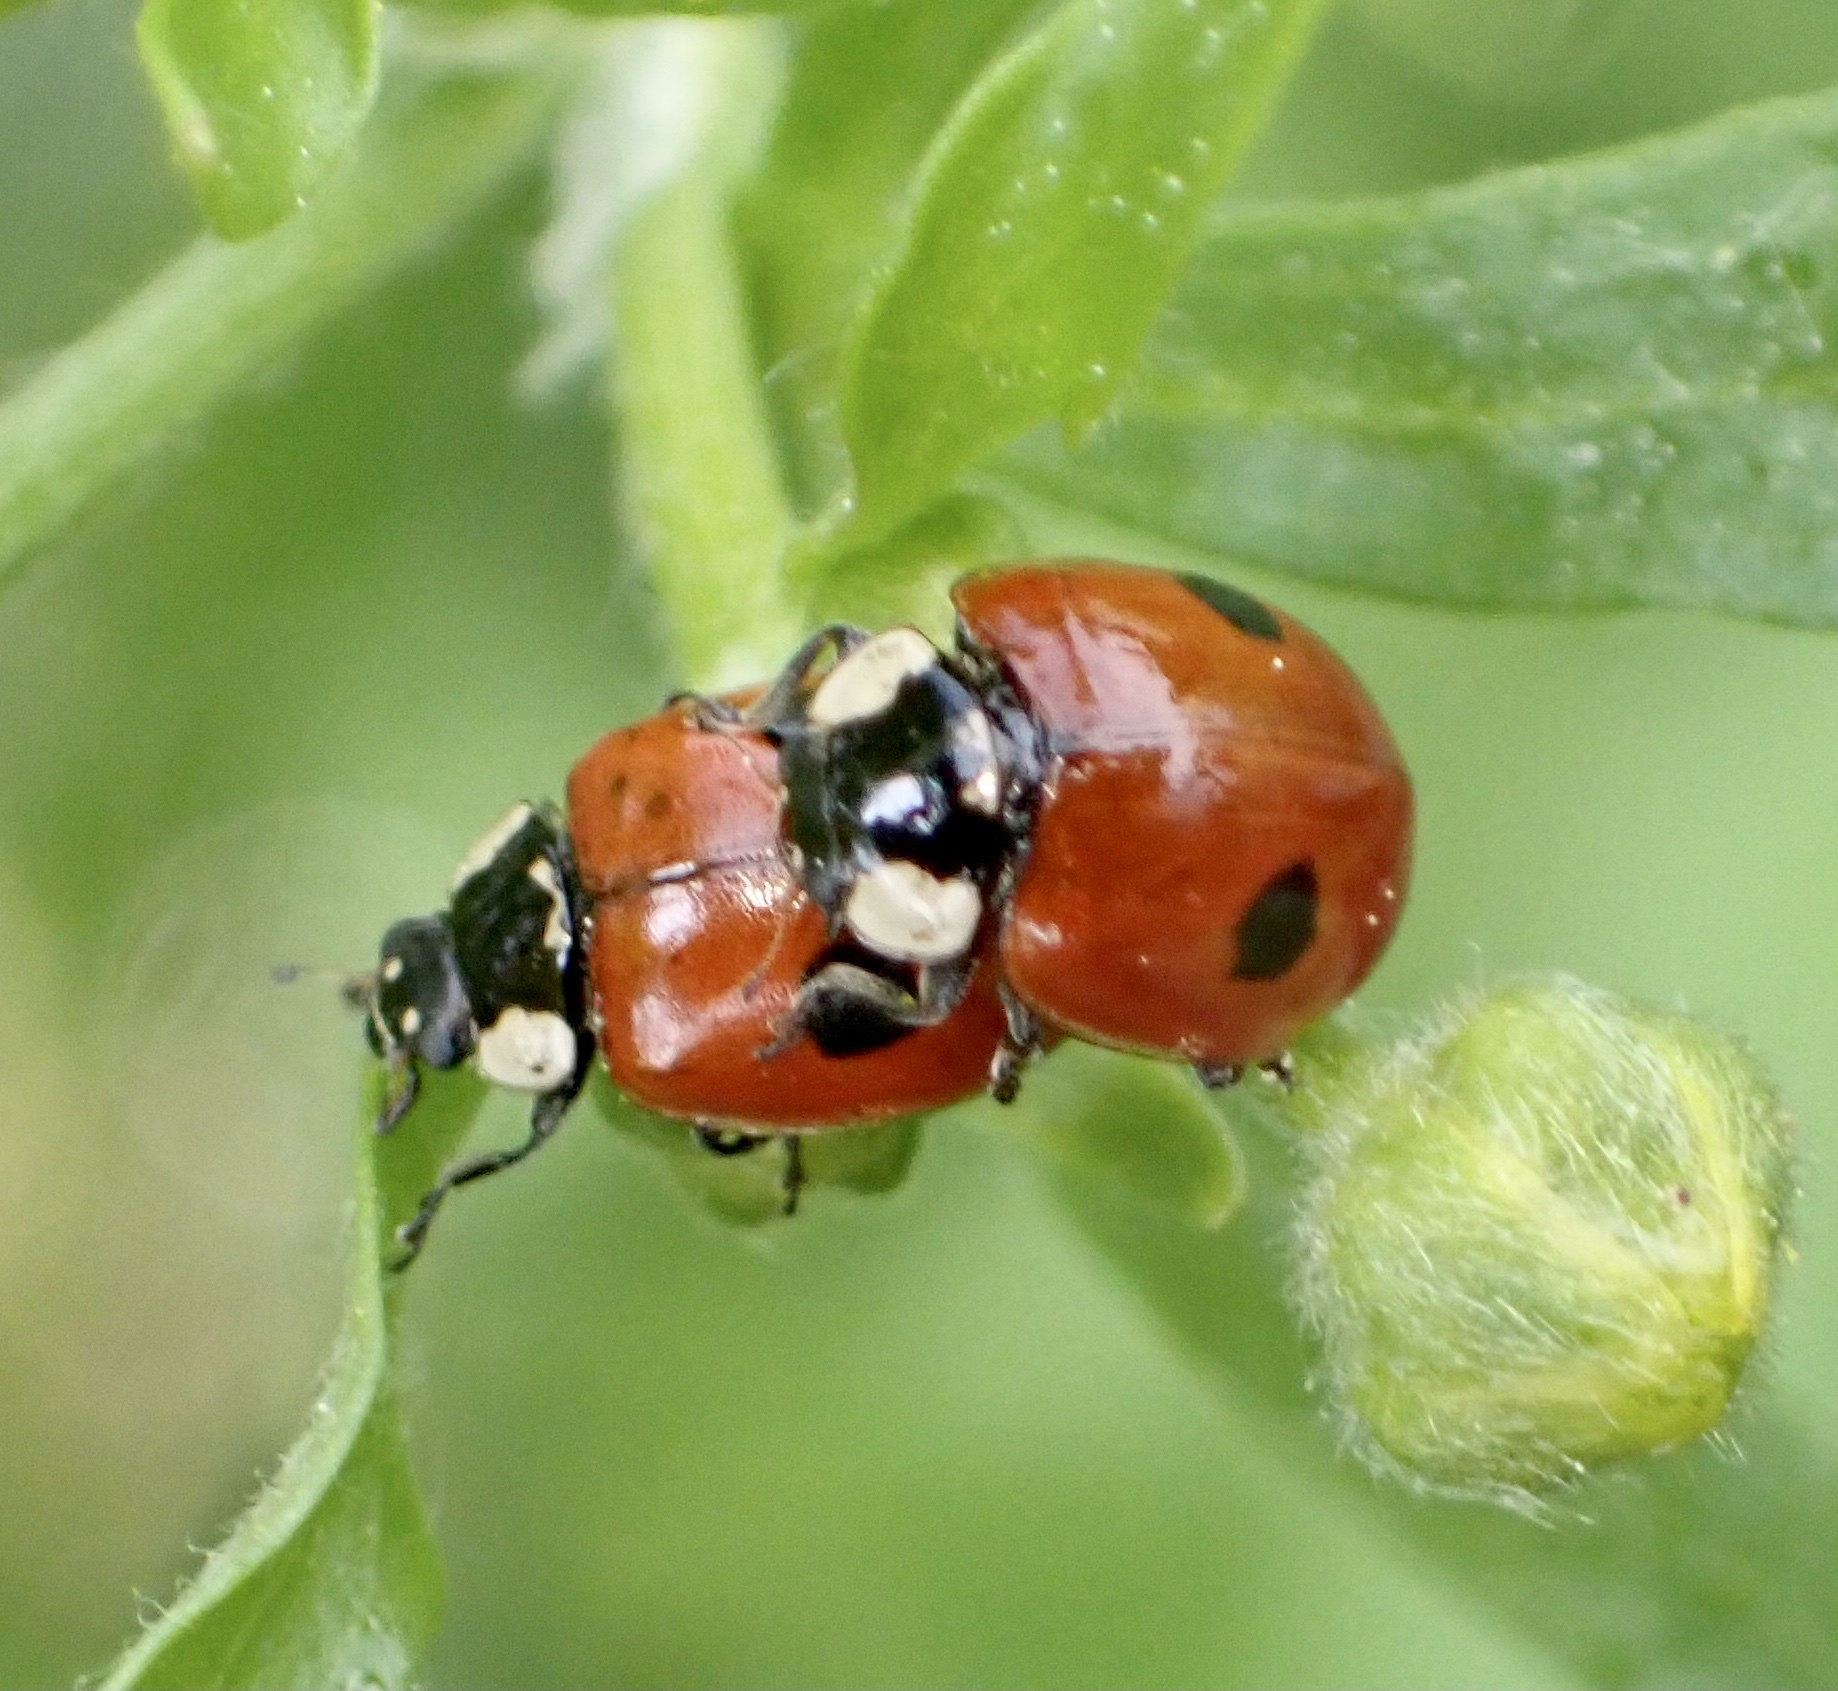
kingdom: Animalia
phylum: Arthropoda
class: Insecta
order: Coleoptera
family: Coccinellidae
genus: Adalia
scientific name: Adalia bipunctata
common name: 2-spot ladybird
